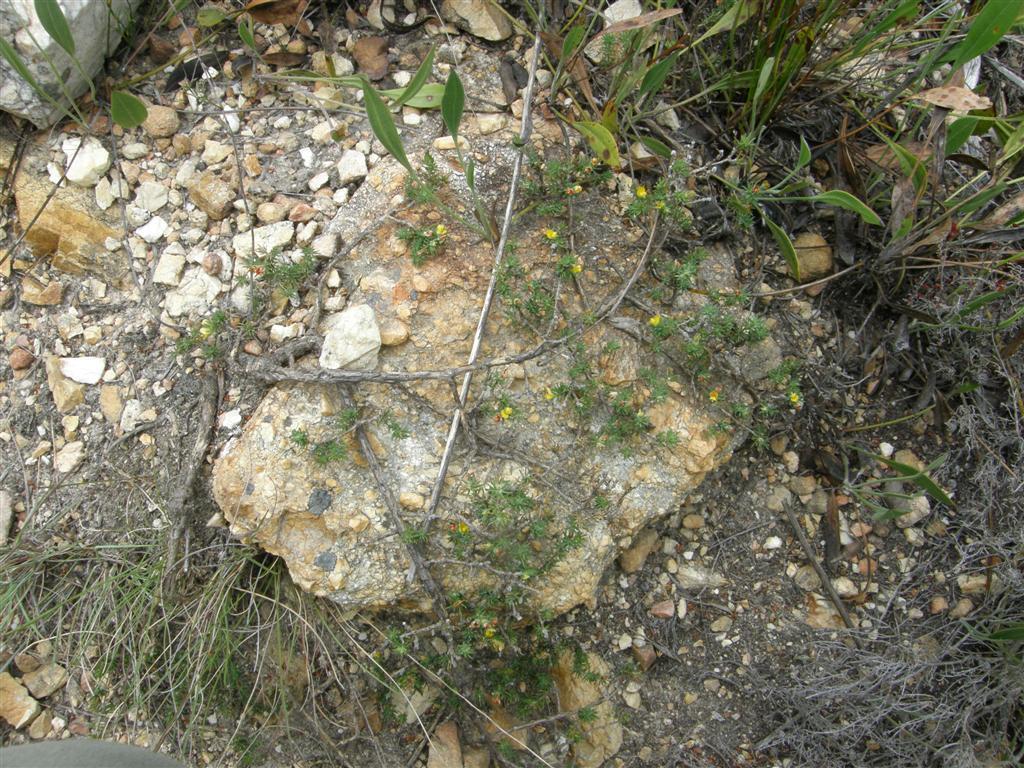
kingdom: Plantae
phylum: Tracheophyta
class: Magnoliopsida
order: Fabales
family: Fabaceae
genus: Aspalathus
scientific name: Aspalathus juniperina
